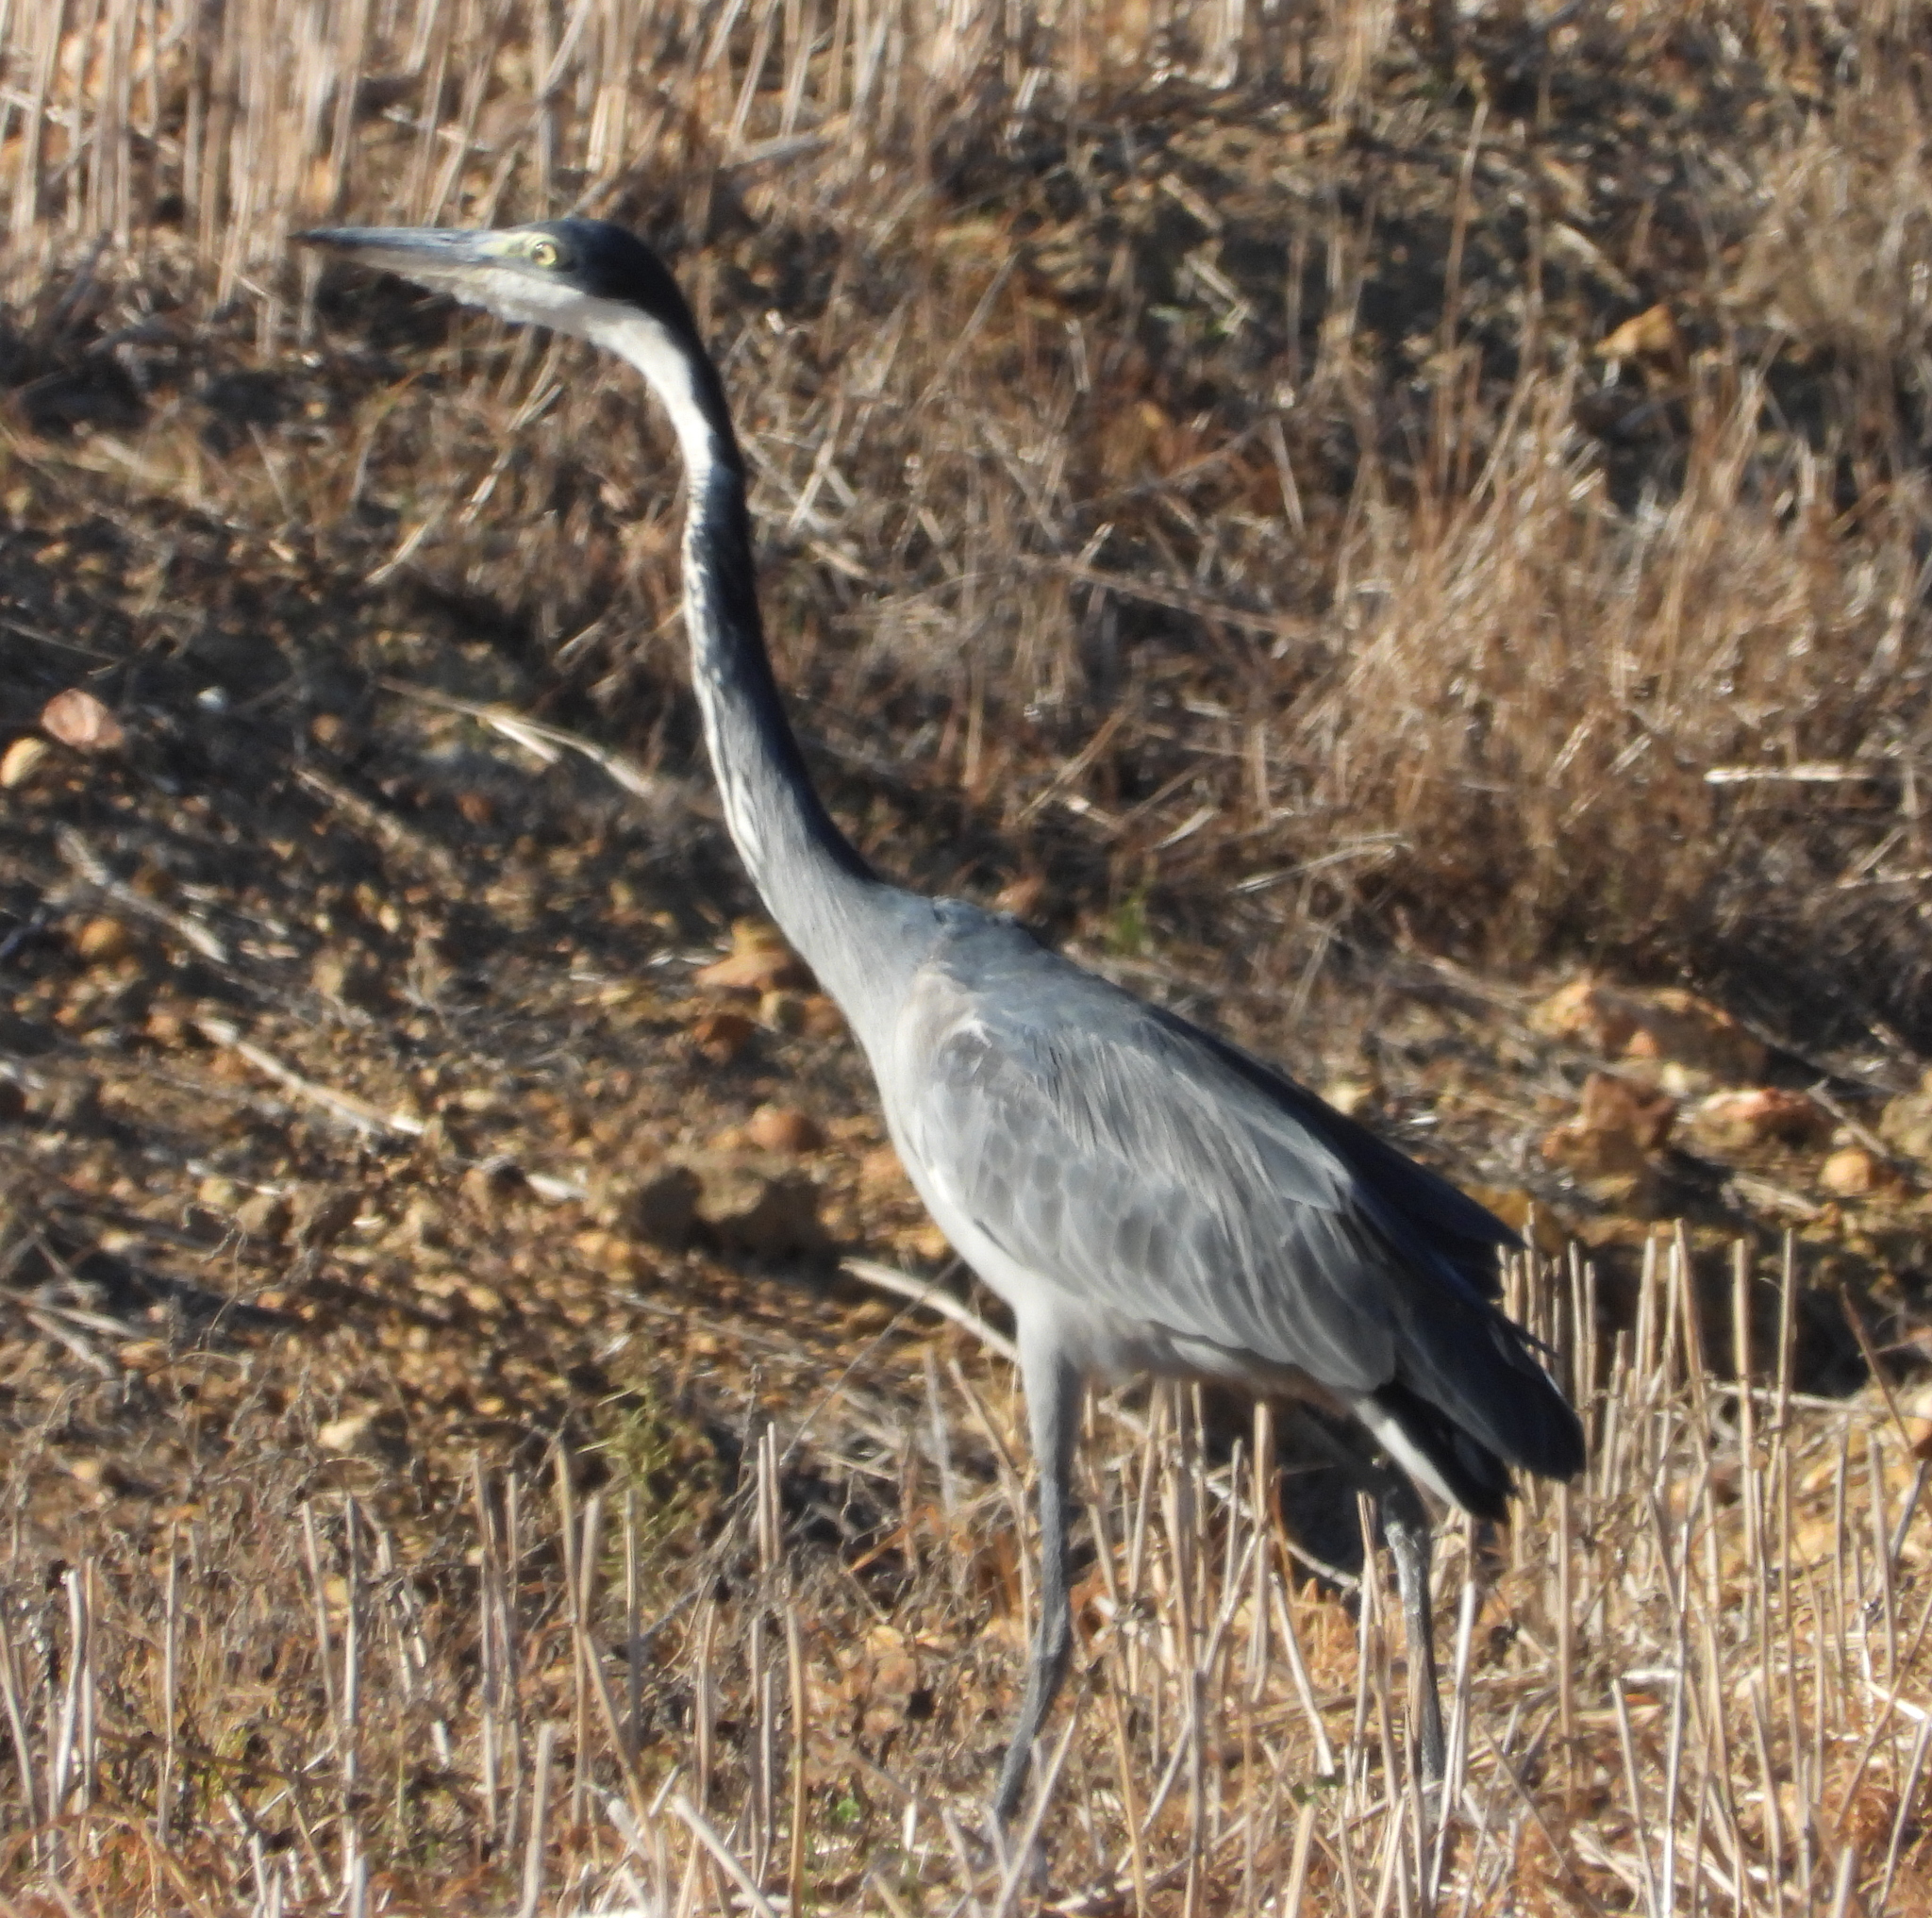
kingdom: Animalia
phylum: Chordata
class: Aves
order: Pelecaniformes
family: Ardeidae
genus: Ardea
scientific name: Ardea melanocephala
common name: Black-headed heron
